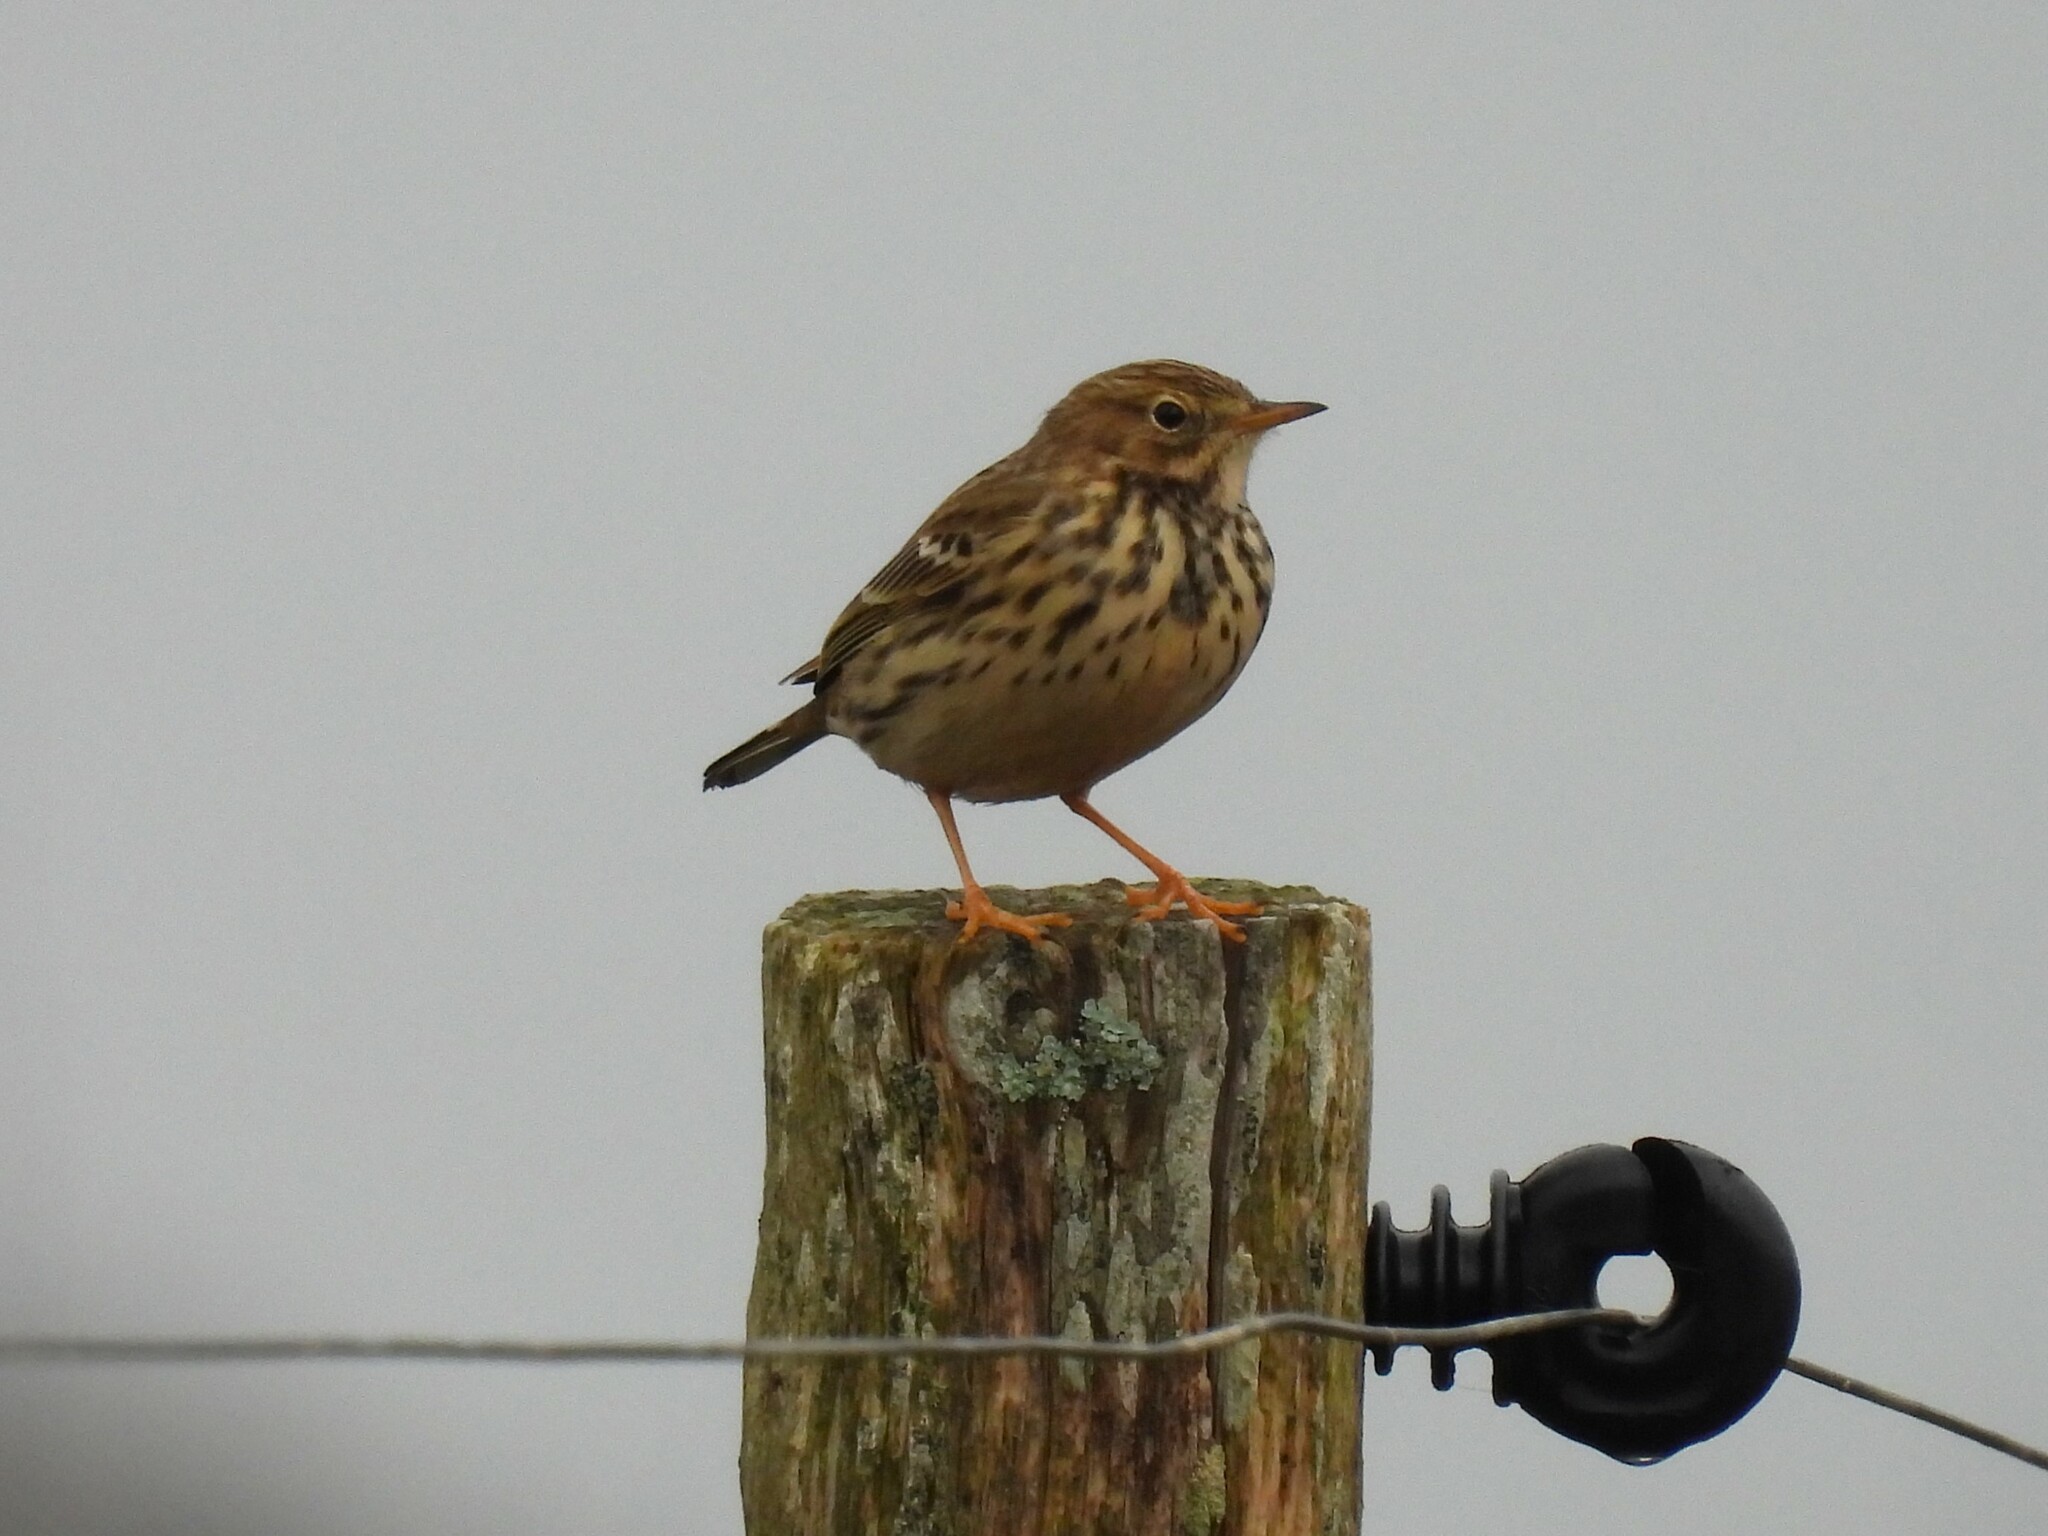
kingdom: Animalia
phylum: Chordata
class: Aves
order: Passeriformes
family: Motacillidae
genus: Anthus
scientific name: Anthus pratensis
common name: Meadow pipit
